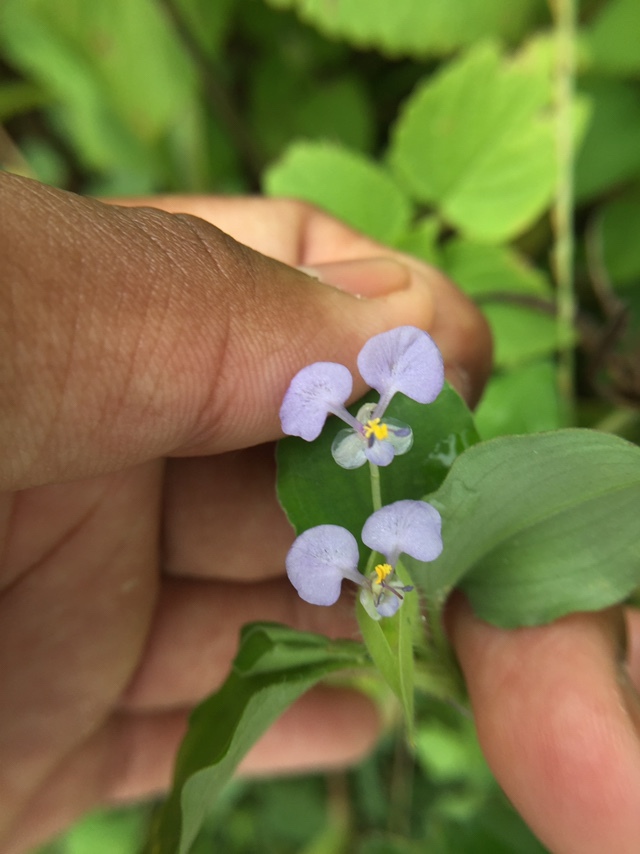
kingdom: Plantae
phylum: Tracheophyta
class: Liliopsida
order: Commelinales
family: Commelinaceae
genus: Commelina
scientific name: Commelina benghalensis
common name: Jio
